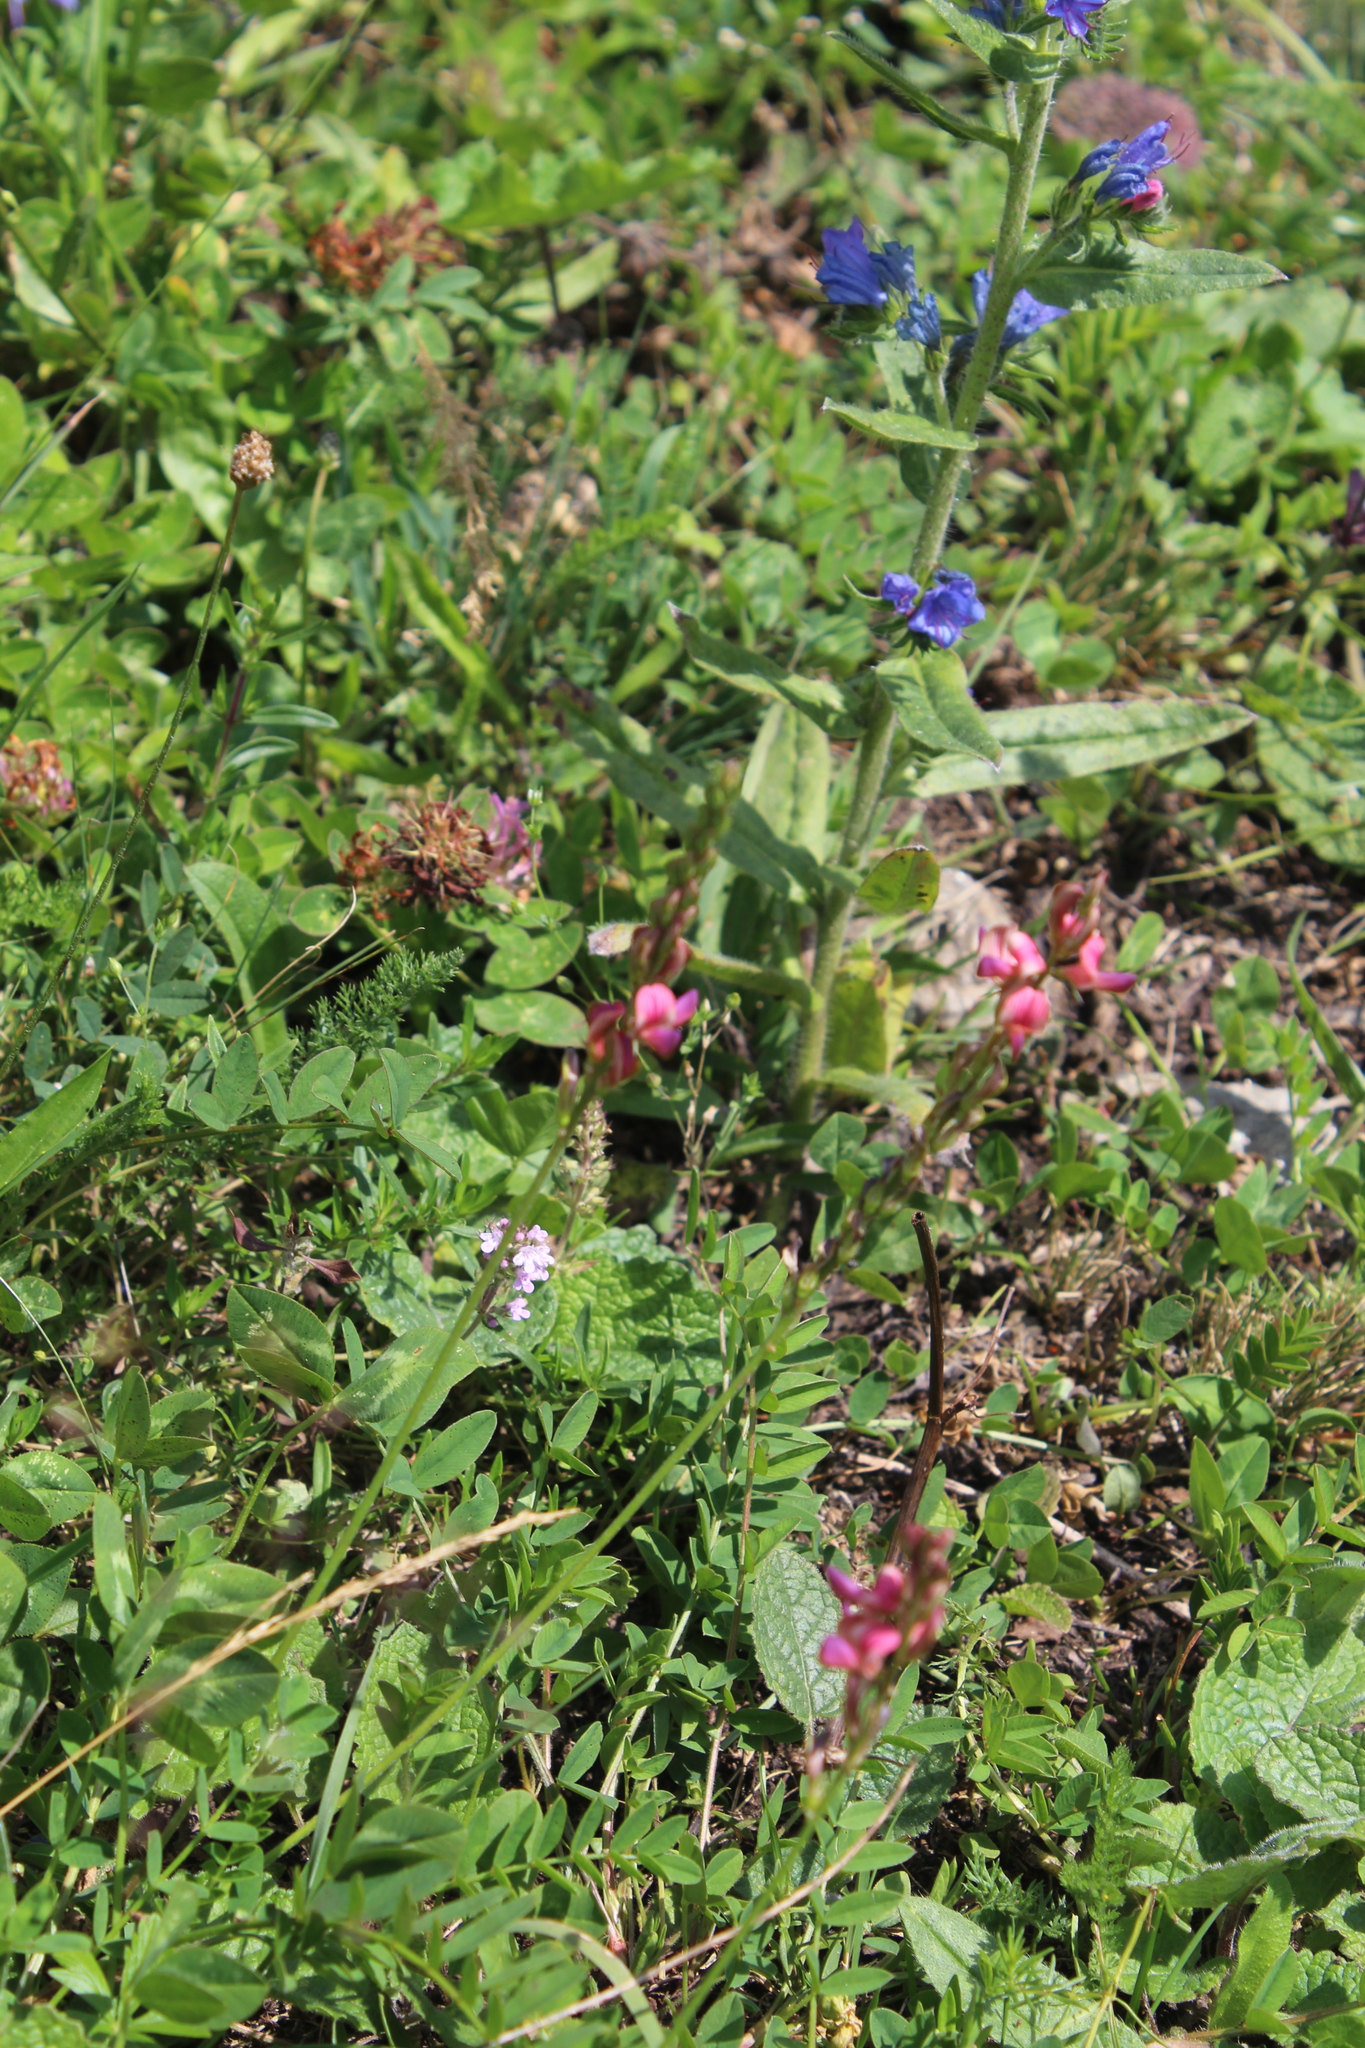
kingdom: Plantae
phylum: Tracheophyta
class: Magnoliopsida
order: Fabales
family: Fabaceae
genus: Onobrychis
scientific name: Onobrychis inermis
